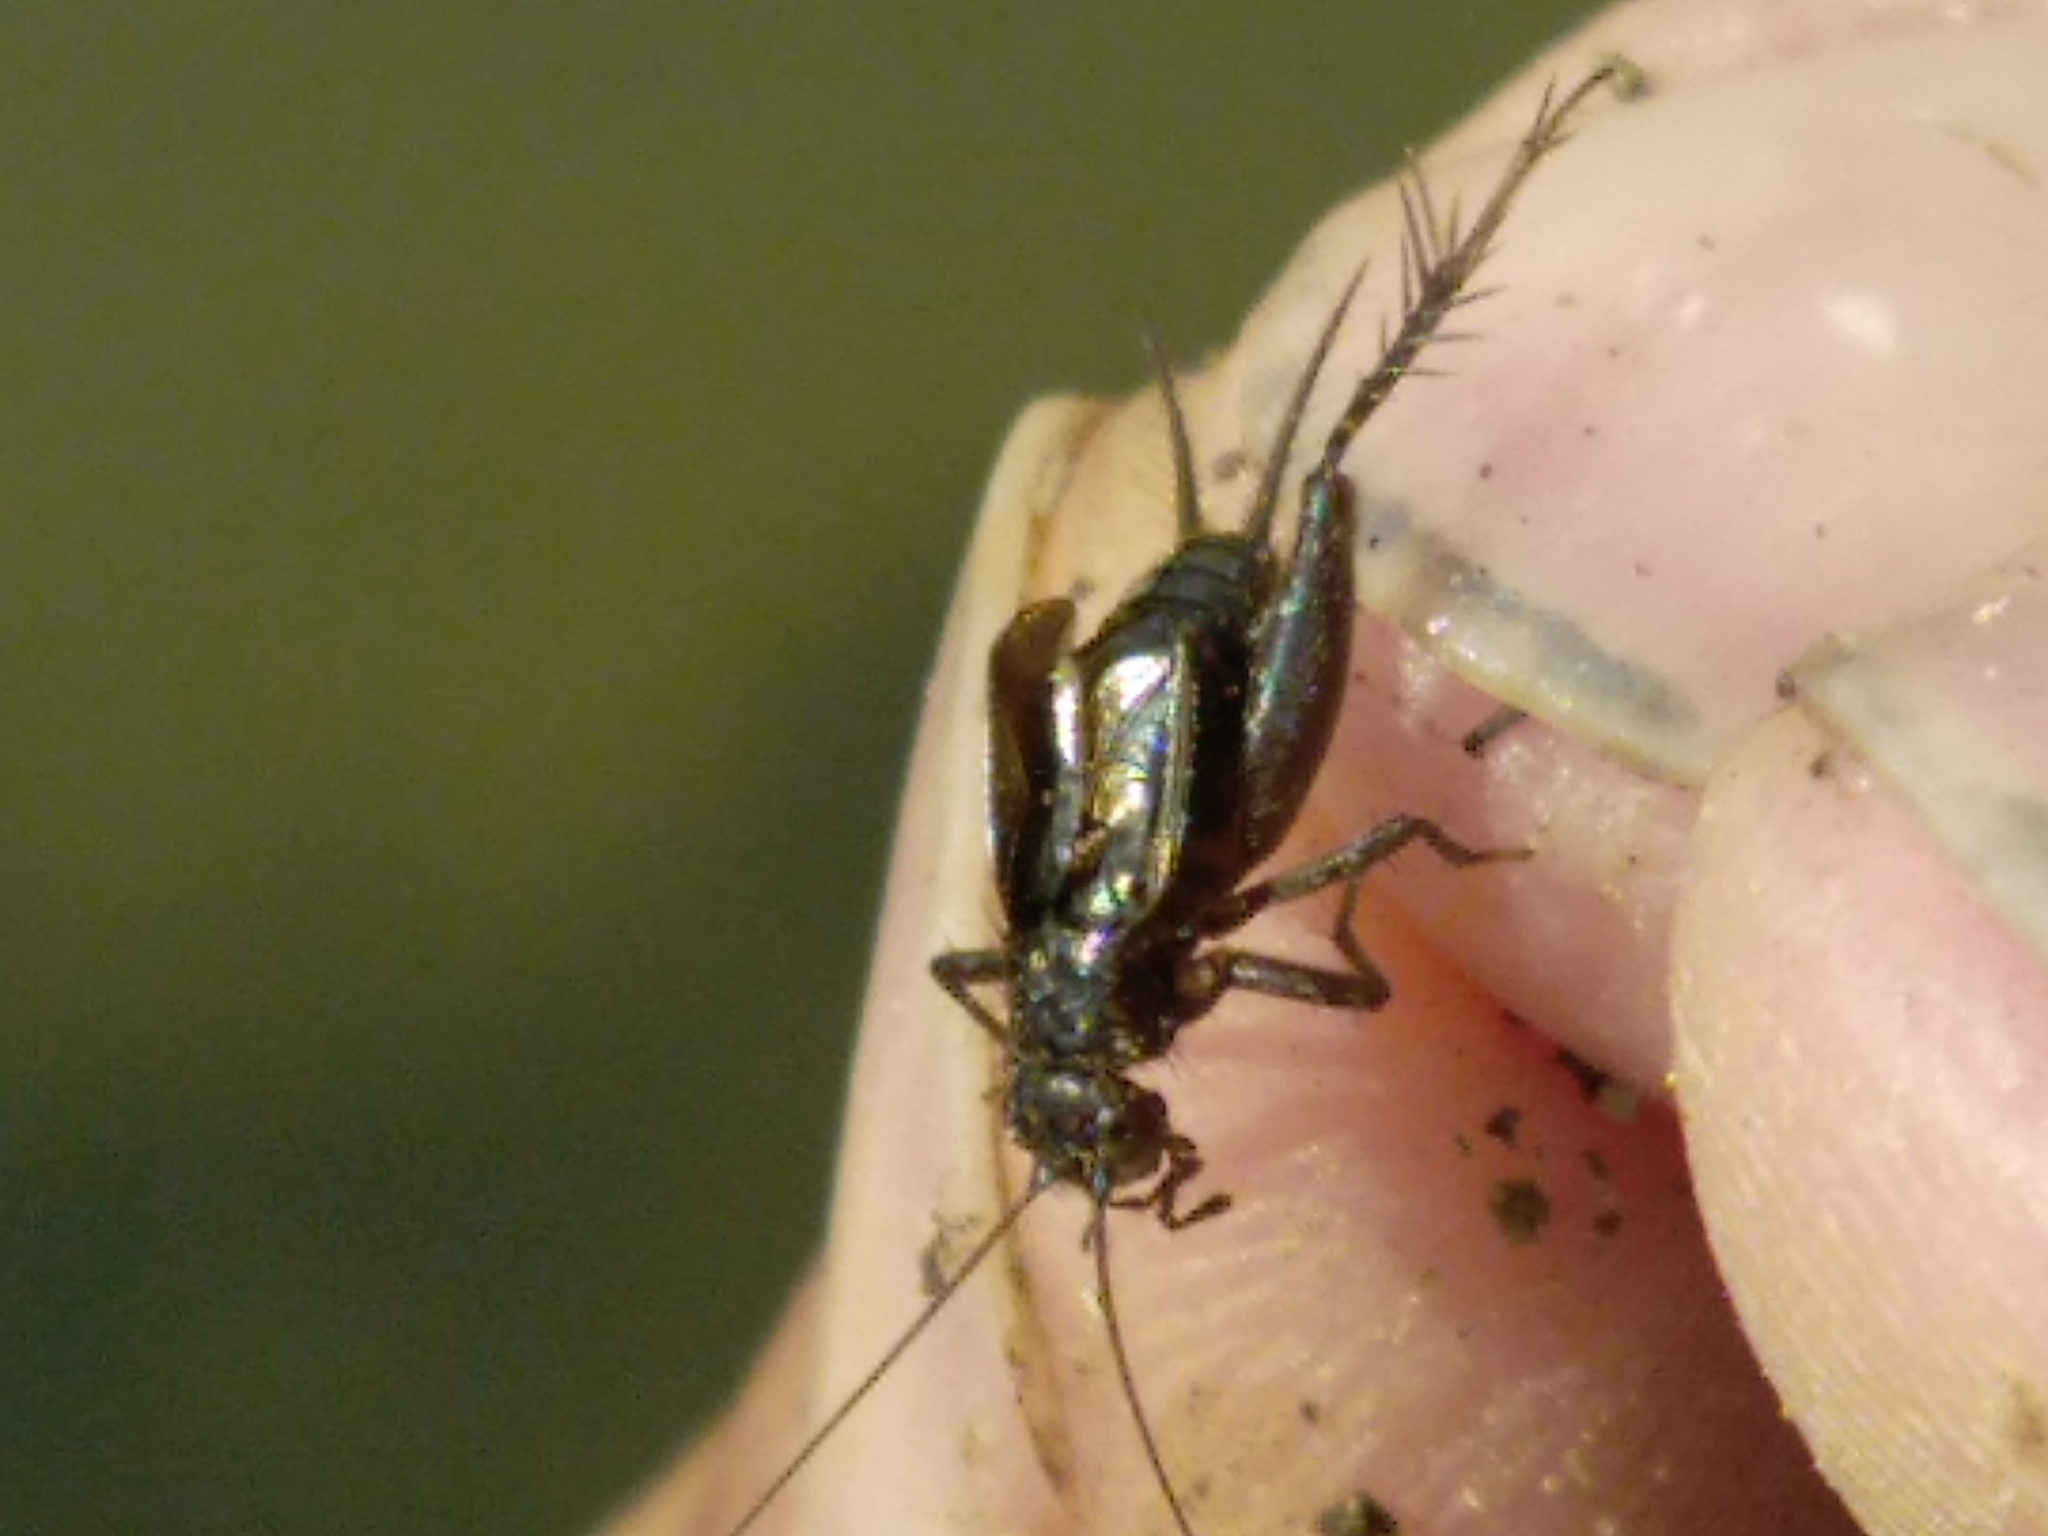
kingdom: Animalia
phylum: Arthropoda
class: Insecta
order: Orthoptera
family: Trigonidiidae
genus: Pteronemobius
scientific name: Pteronemobius heydenii
